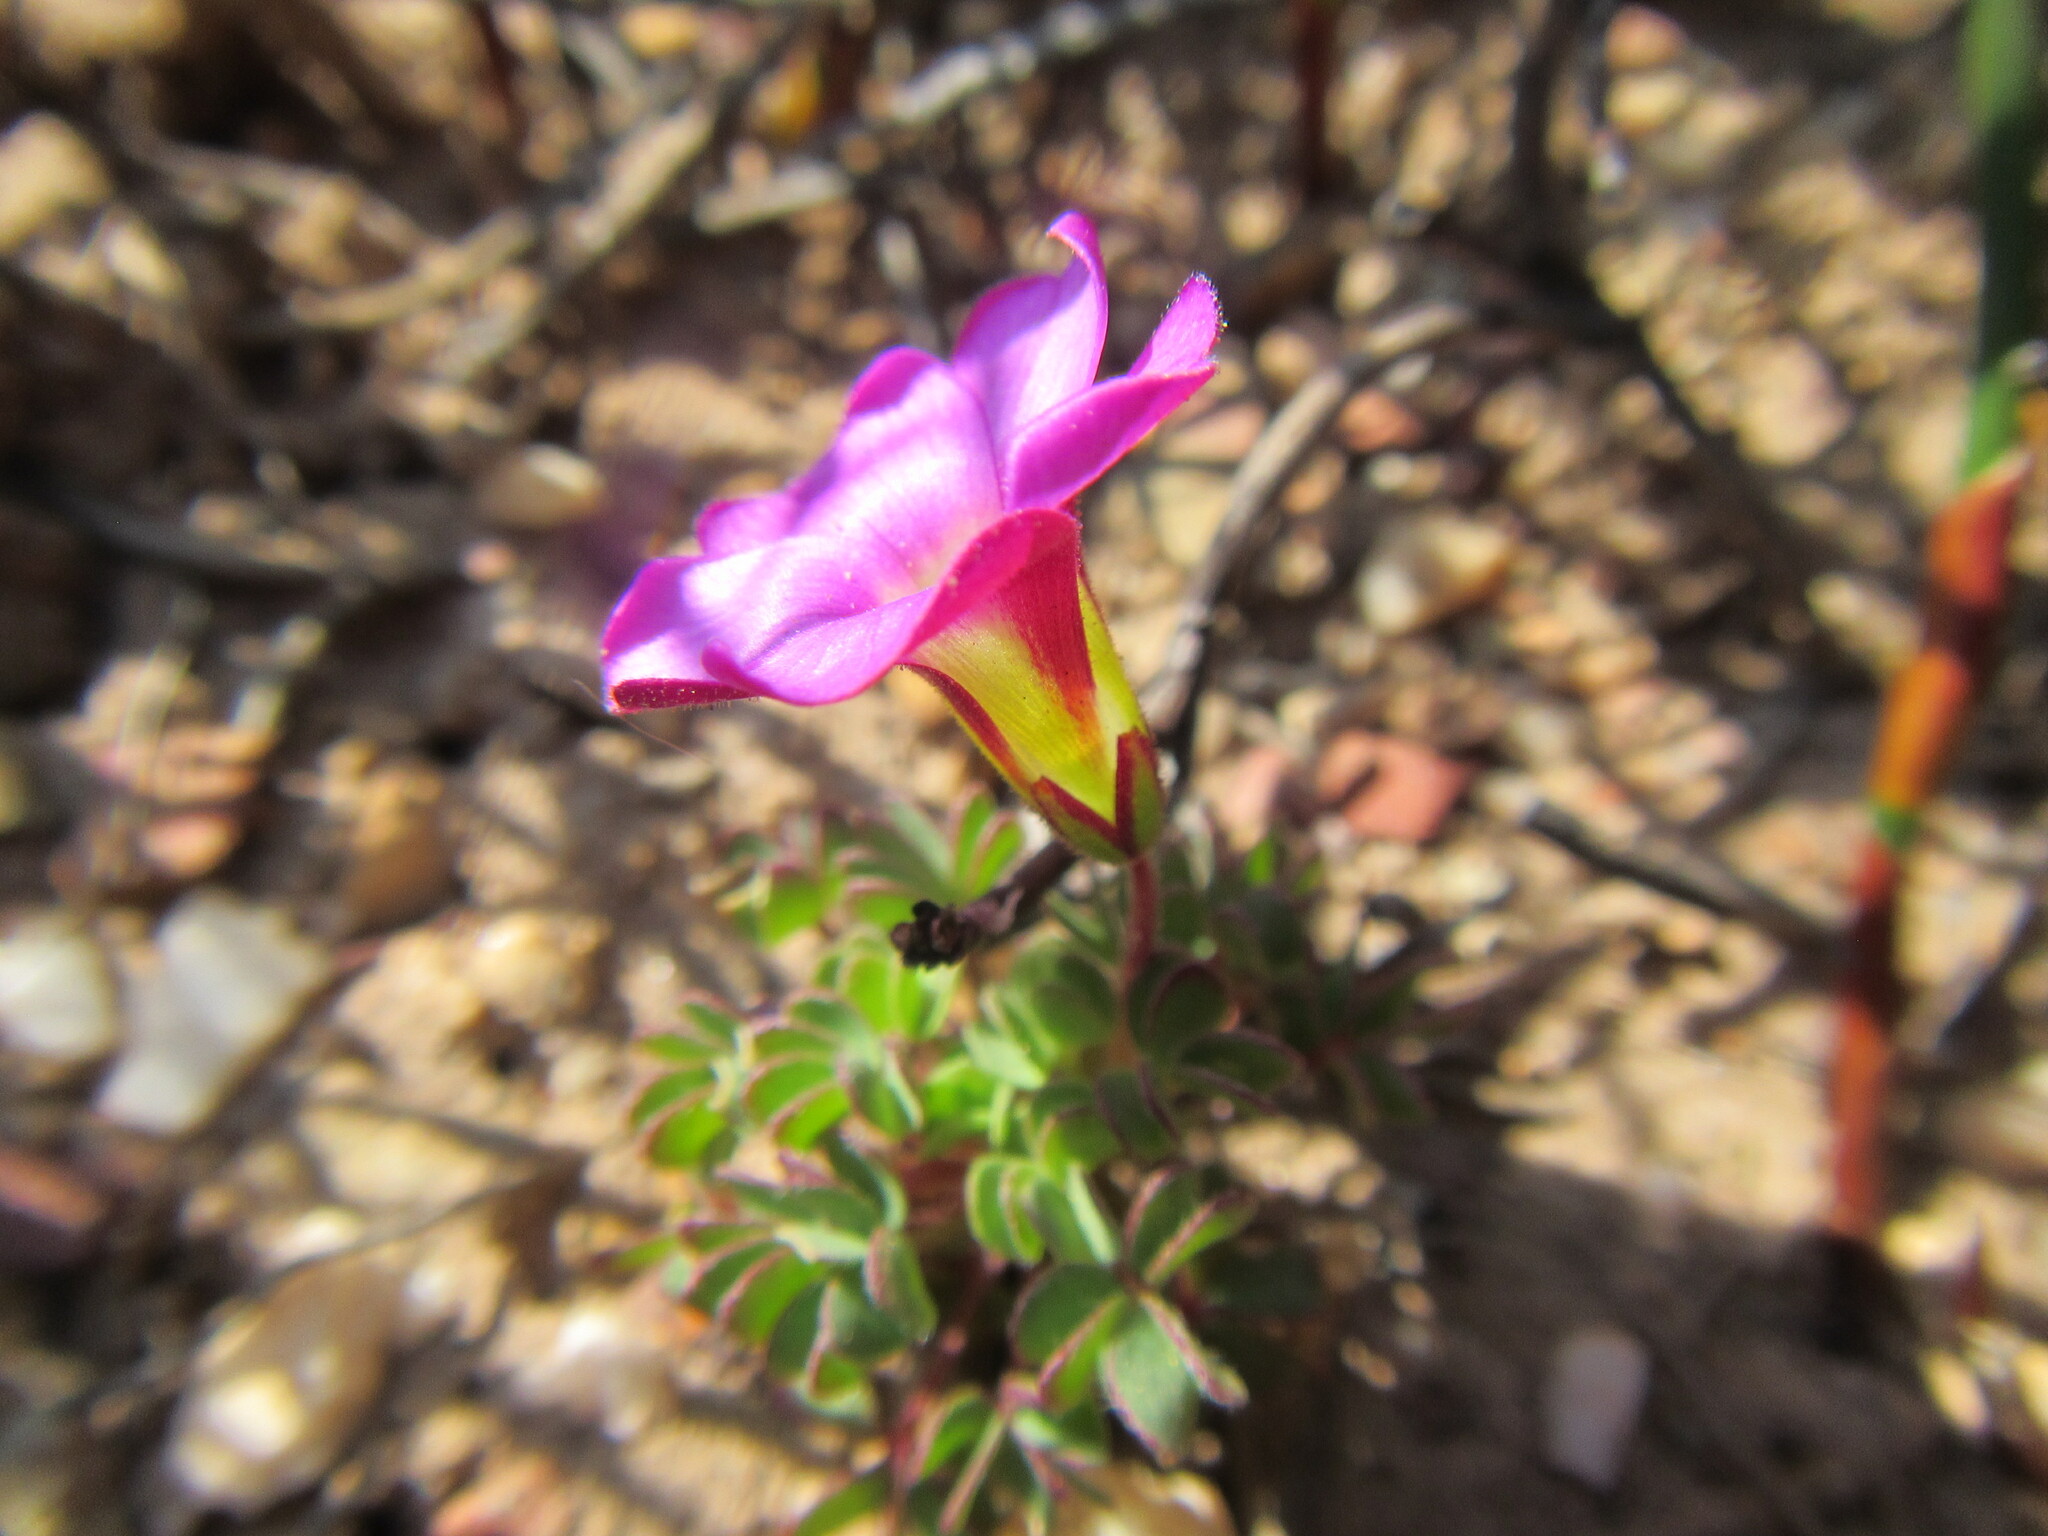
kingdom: Plantae
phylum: Tracheophyta
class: Magnoliopsida
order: Oxalidales
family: Oxalidaceae
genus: Oxalis
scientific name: Oxalis heterophylla
